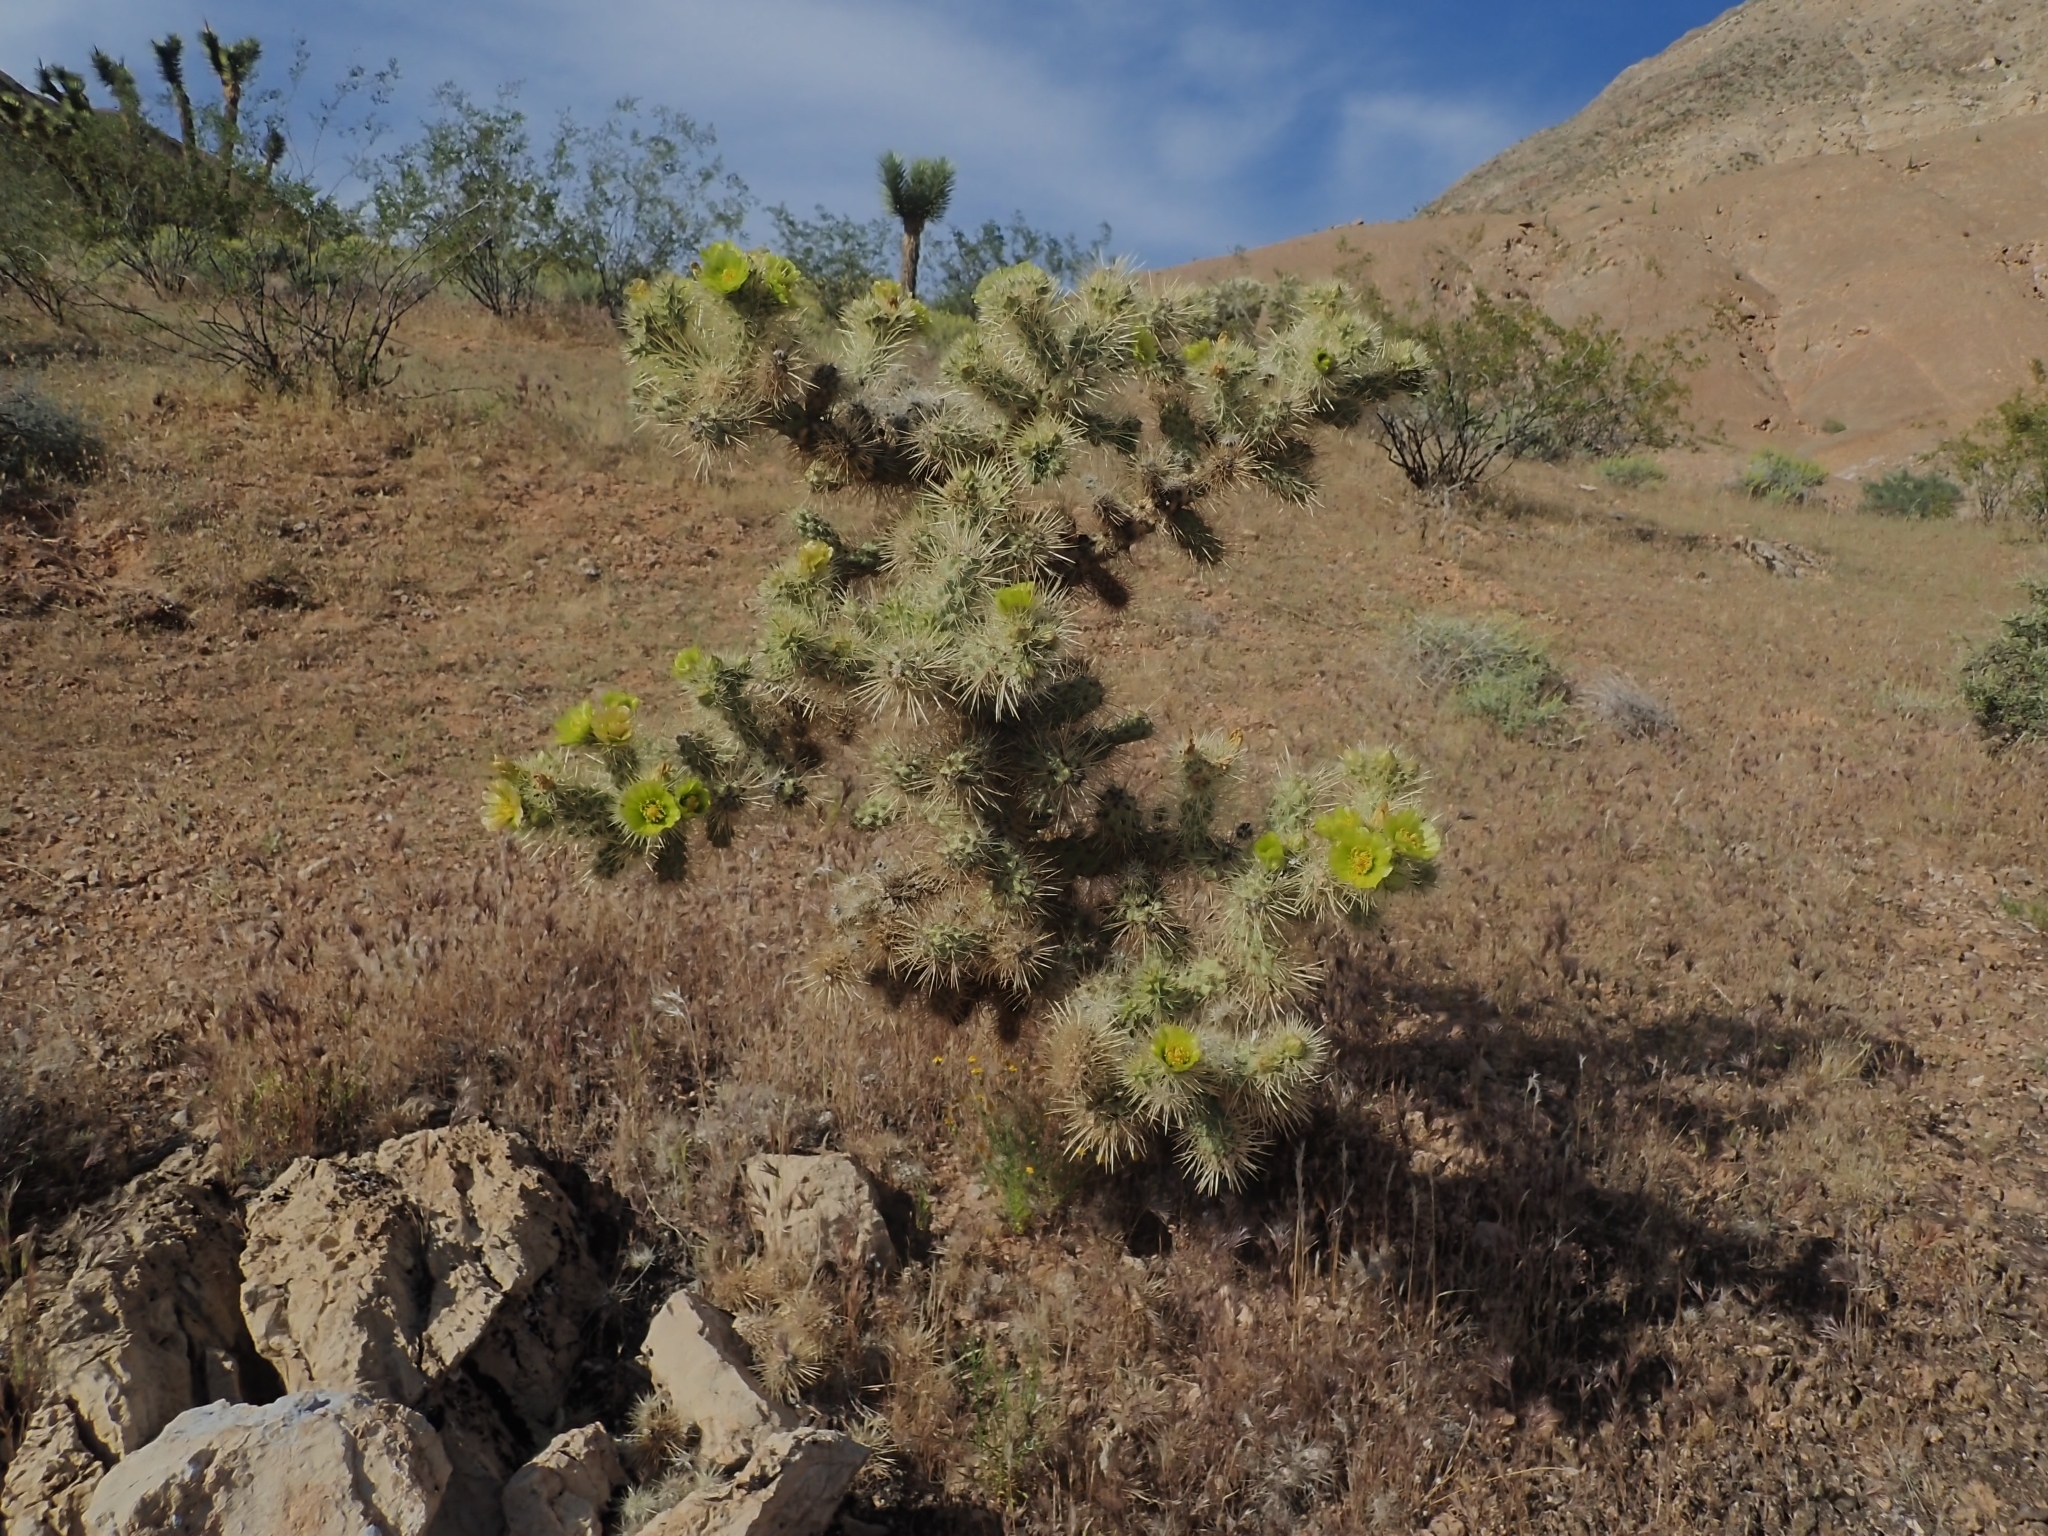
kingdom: Plantae
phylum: Tracheophyta
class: Magnoliopsida
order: Caryophyllales
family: Cactaceae
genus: Cylindropuntia
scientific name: Cylindropuntia echinocarpa
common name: Ground cholla
